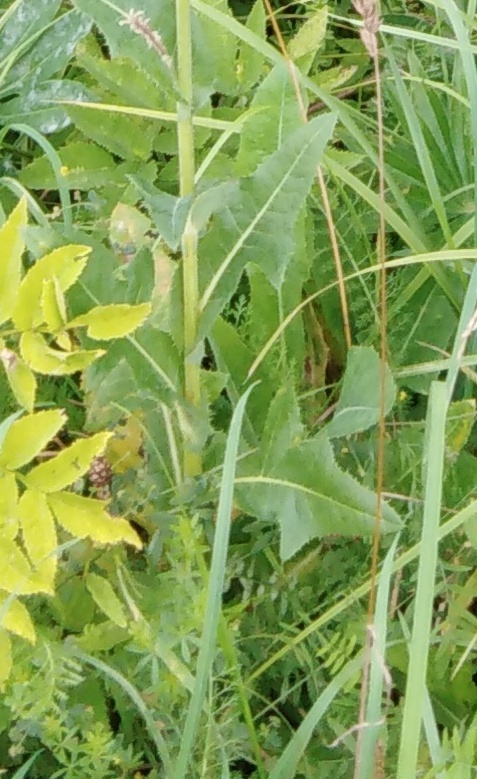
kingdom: Plantae
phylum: Tracheophyta
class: Magnoliopsida
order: Asterales
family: Asteraceae
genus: Sonchus
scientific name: Sonchus arvensis
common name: Perennial sow-thistle
